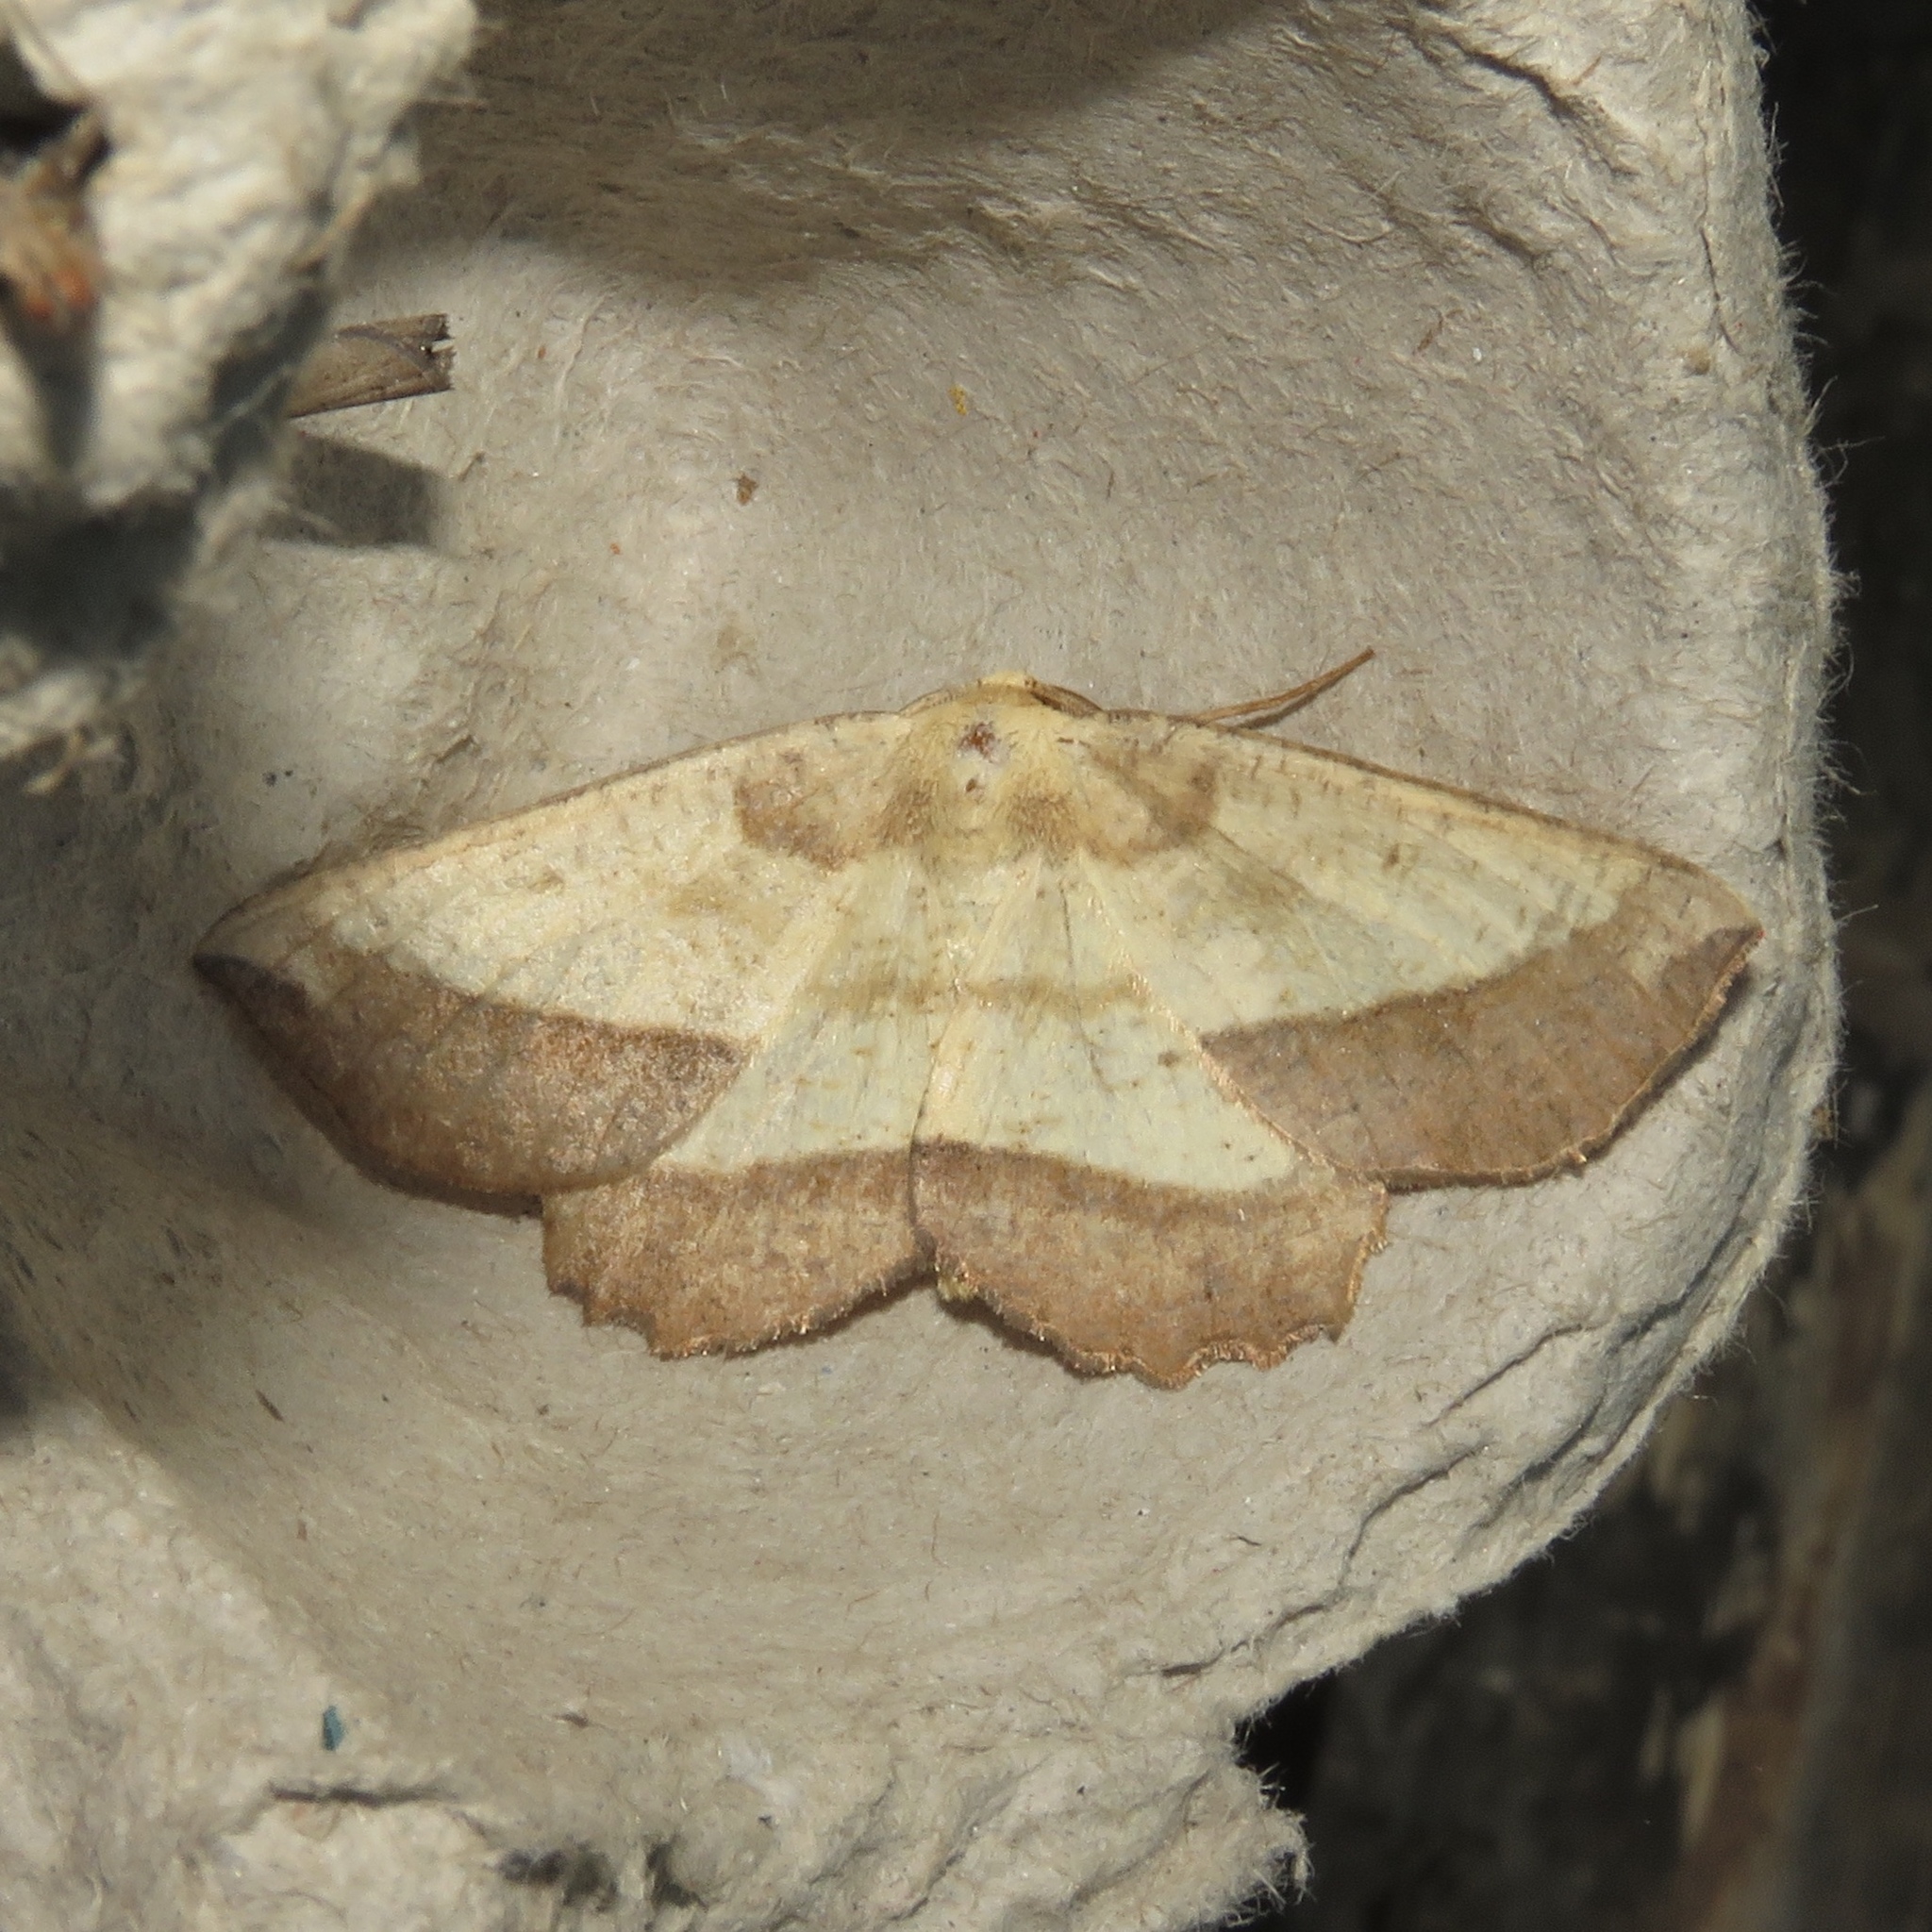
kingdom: Animalia
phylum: Arthropoda
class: Insecta
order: Lepidoptera
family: Geometridae
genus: Euchlaena
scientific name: Euchlaena serrata
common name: Saw wing
